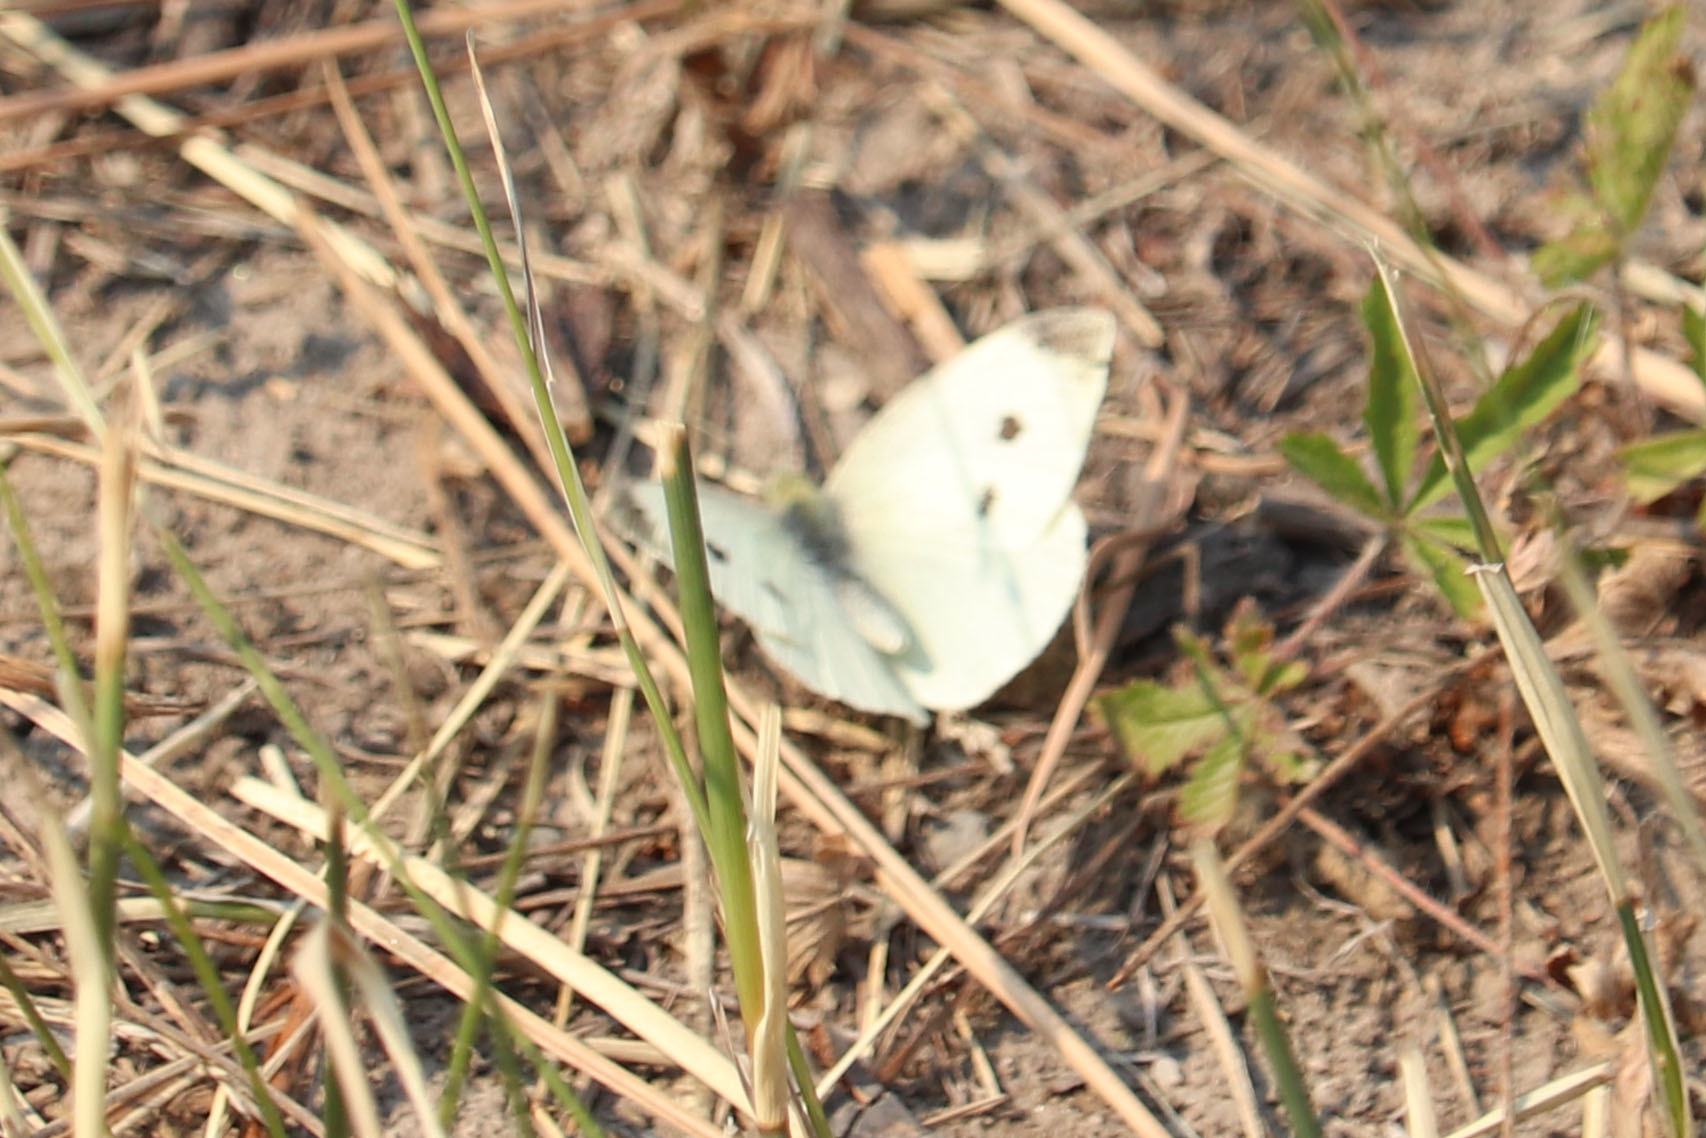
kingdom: Animalia
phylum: Arthropoda
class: Insecta
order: Lepidoptera
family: Pieridae
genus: Pieris
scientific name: Pieris rapae
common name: Small white
